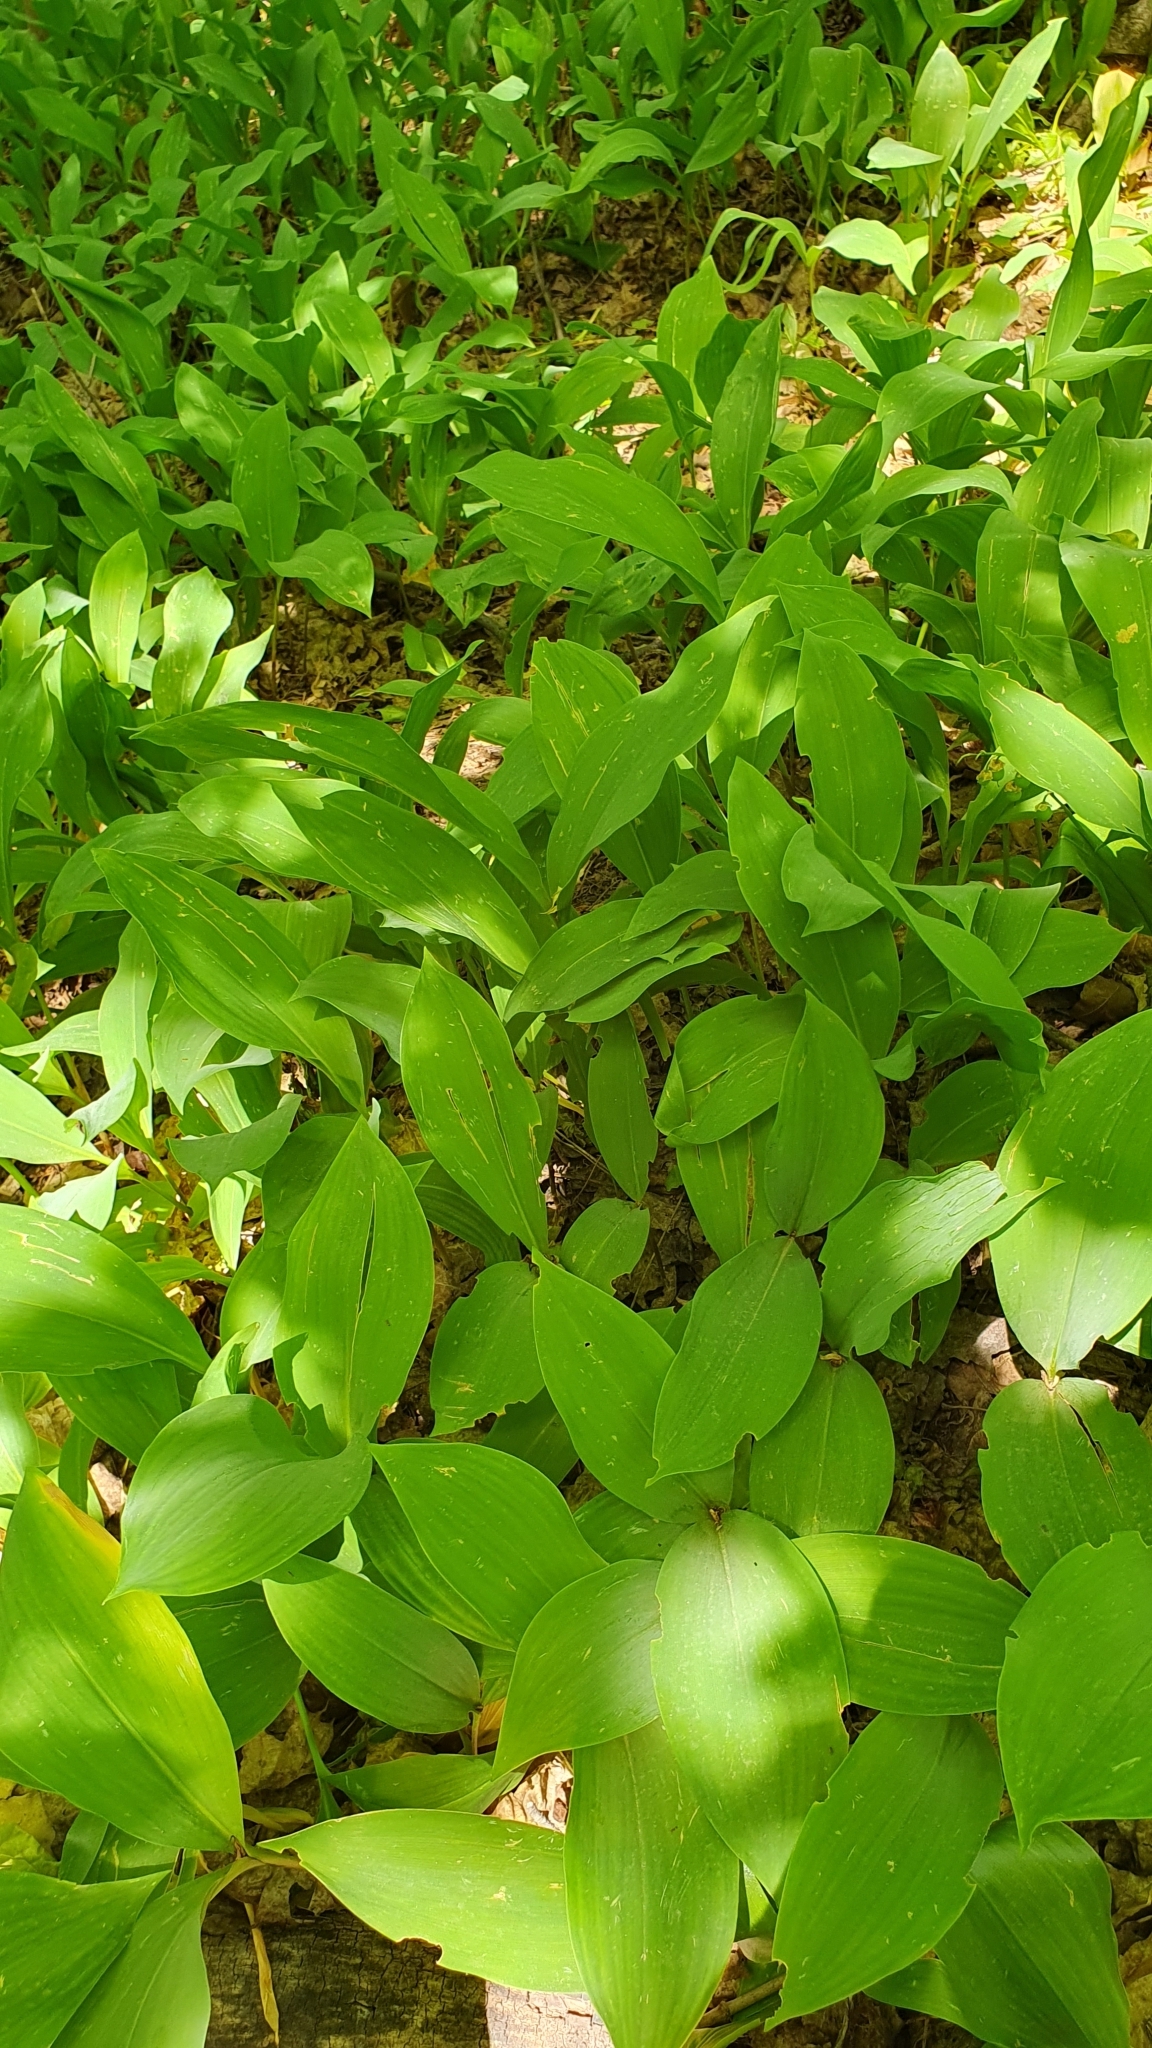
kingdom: Plantae
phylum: Tracheophyta
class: Liliopsida
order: Asparagales
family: Asparagaceae
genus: Convallaria
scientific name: Convallaria majalis
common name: Lily-of-the-valley
